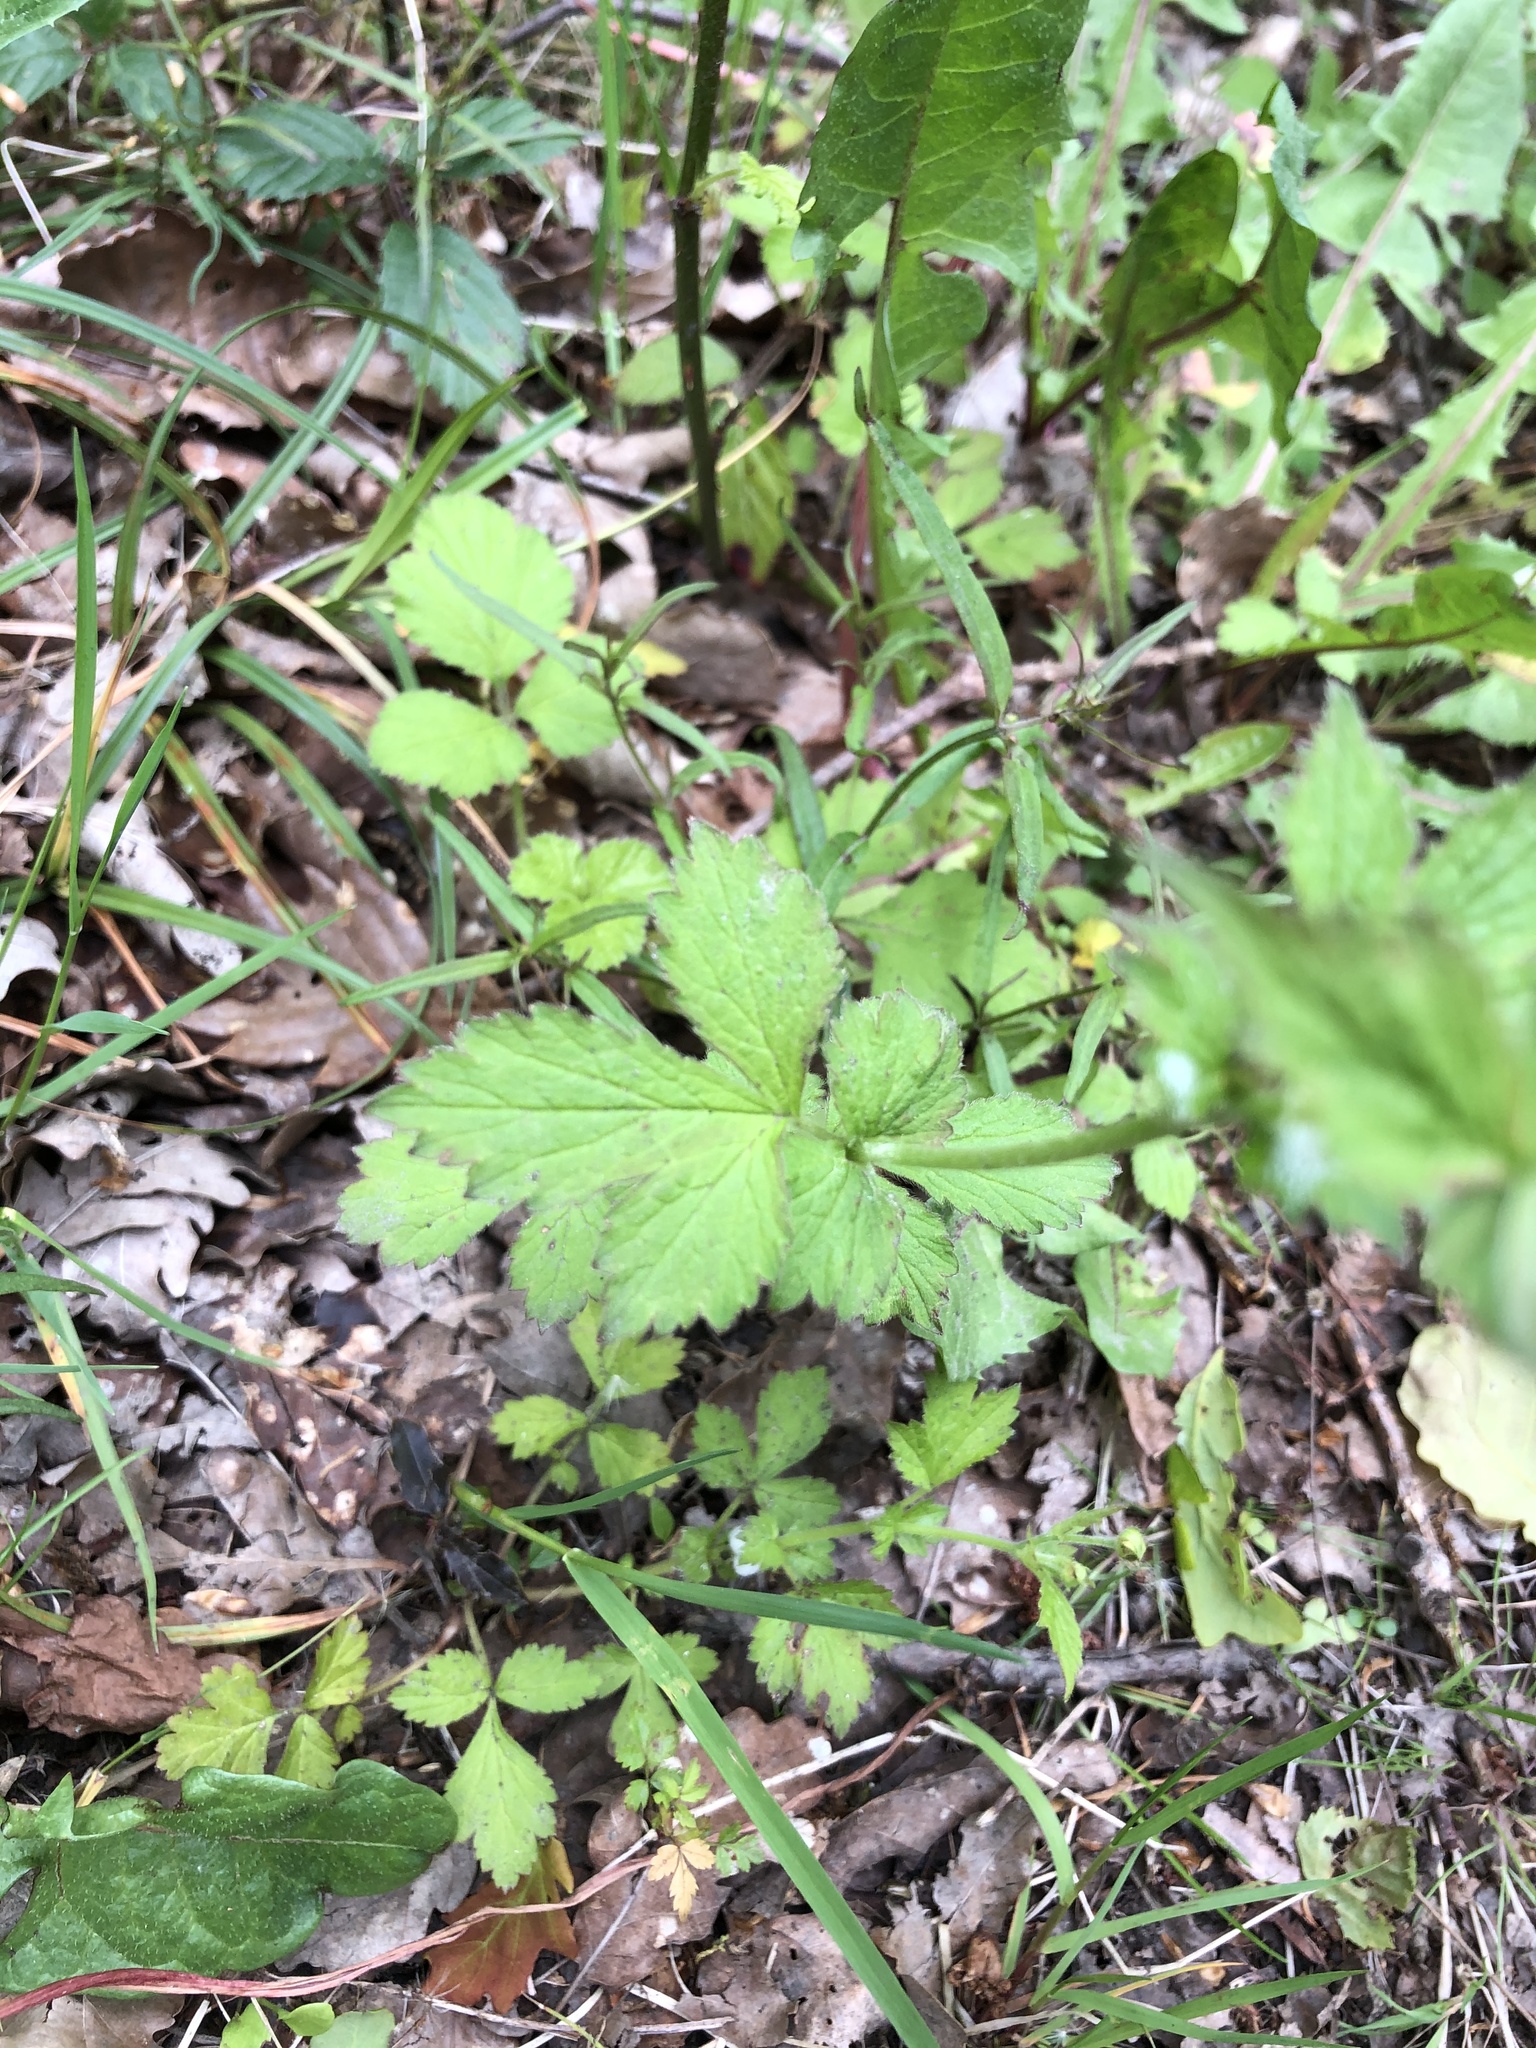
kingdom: Plantae
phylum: Tracheophyta
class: Magnoliopsida
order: Rosales
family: Rosaceae
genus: Geum
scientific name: Geum urbanum
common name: Wood avens
